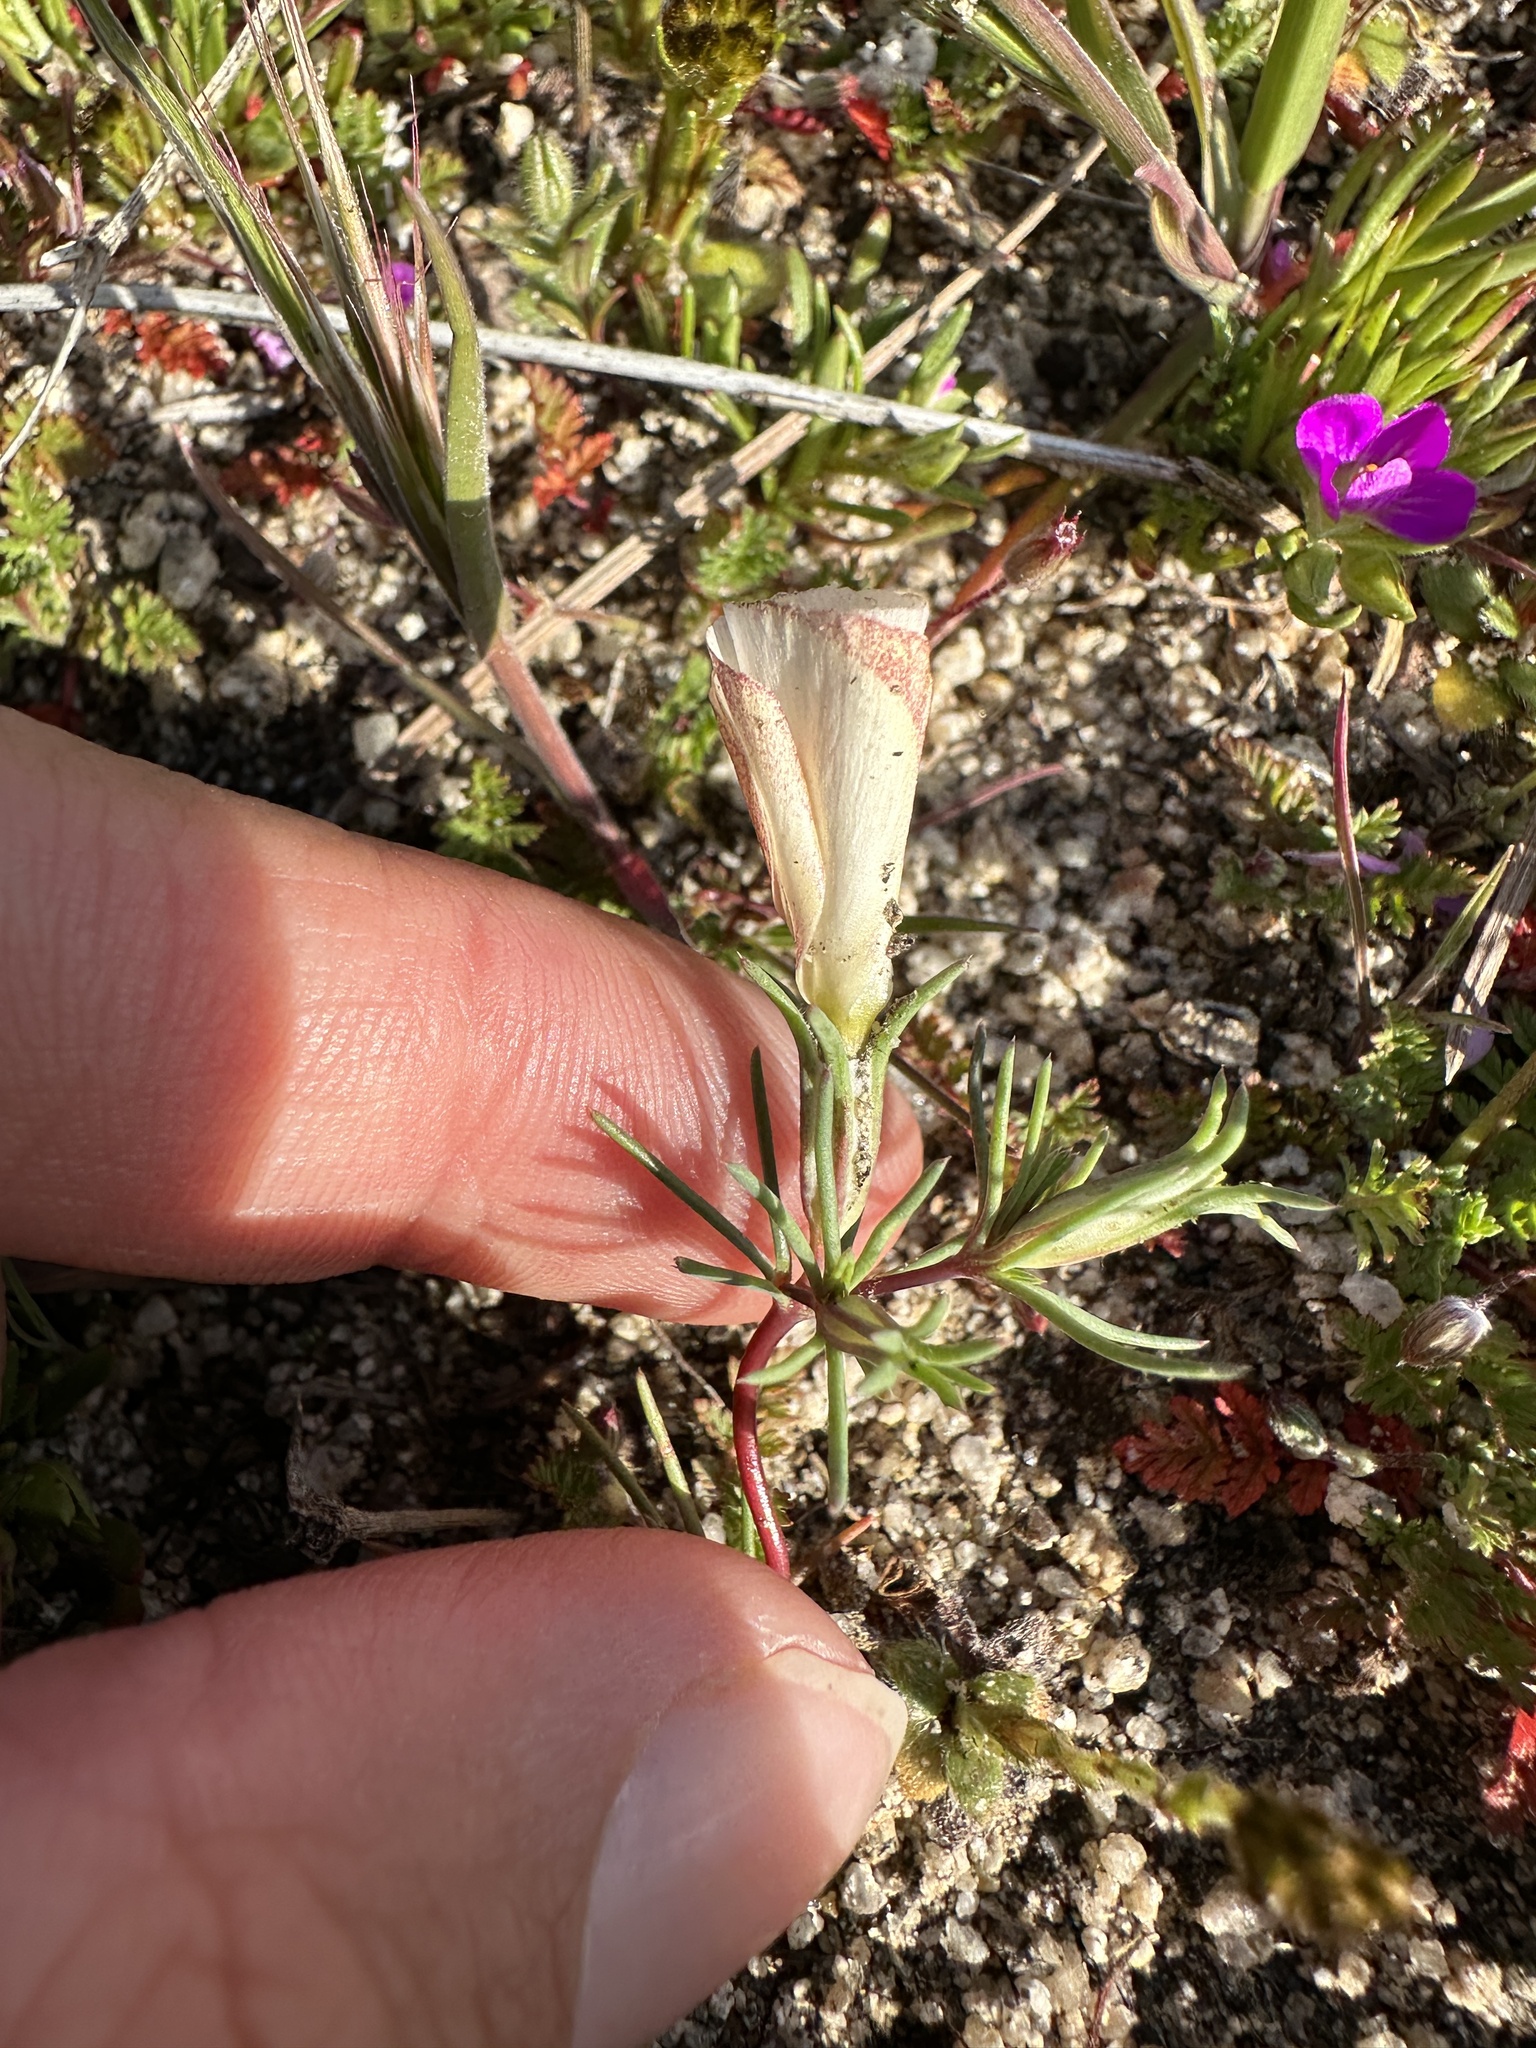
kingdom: Plantae
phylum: Tracheophyta
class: Magnoliopsida
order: Ericales
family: Polemoniaceae
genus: Linanthus
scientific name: Linanthus dichotomus
